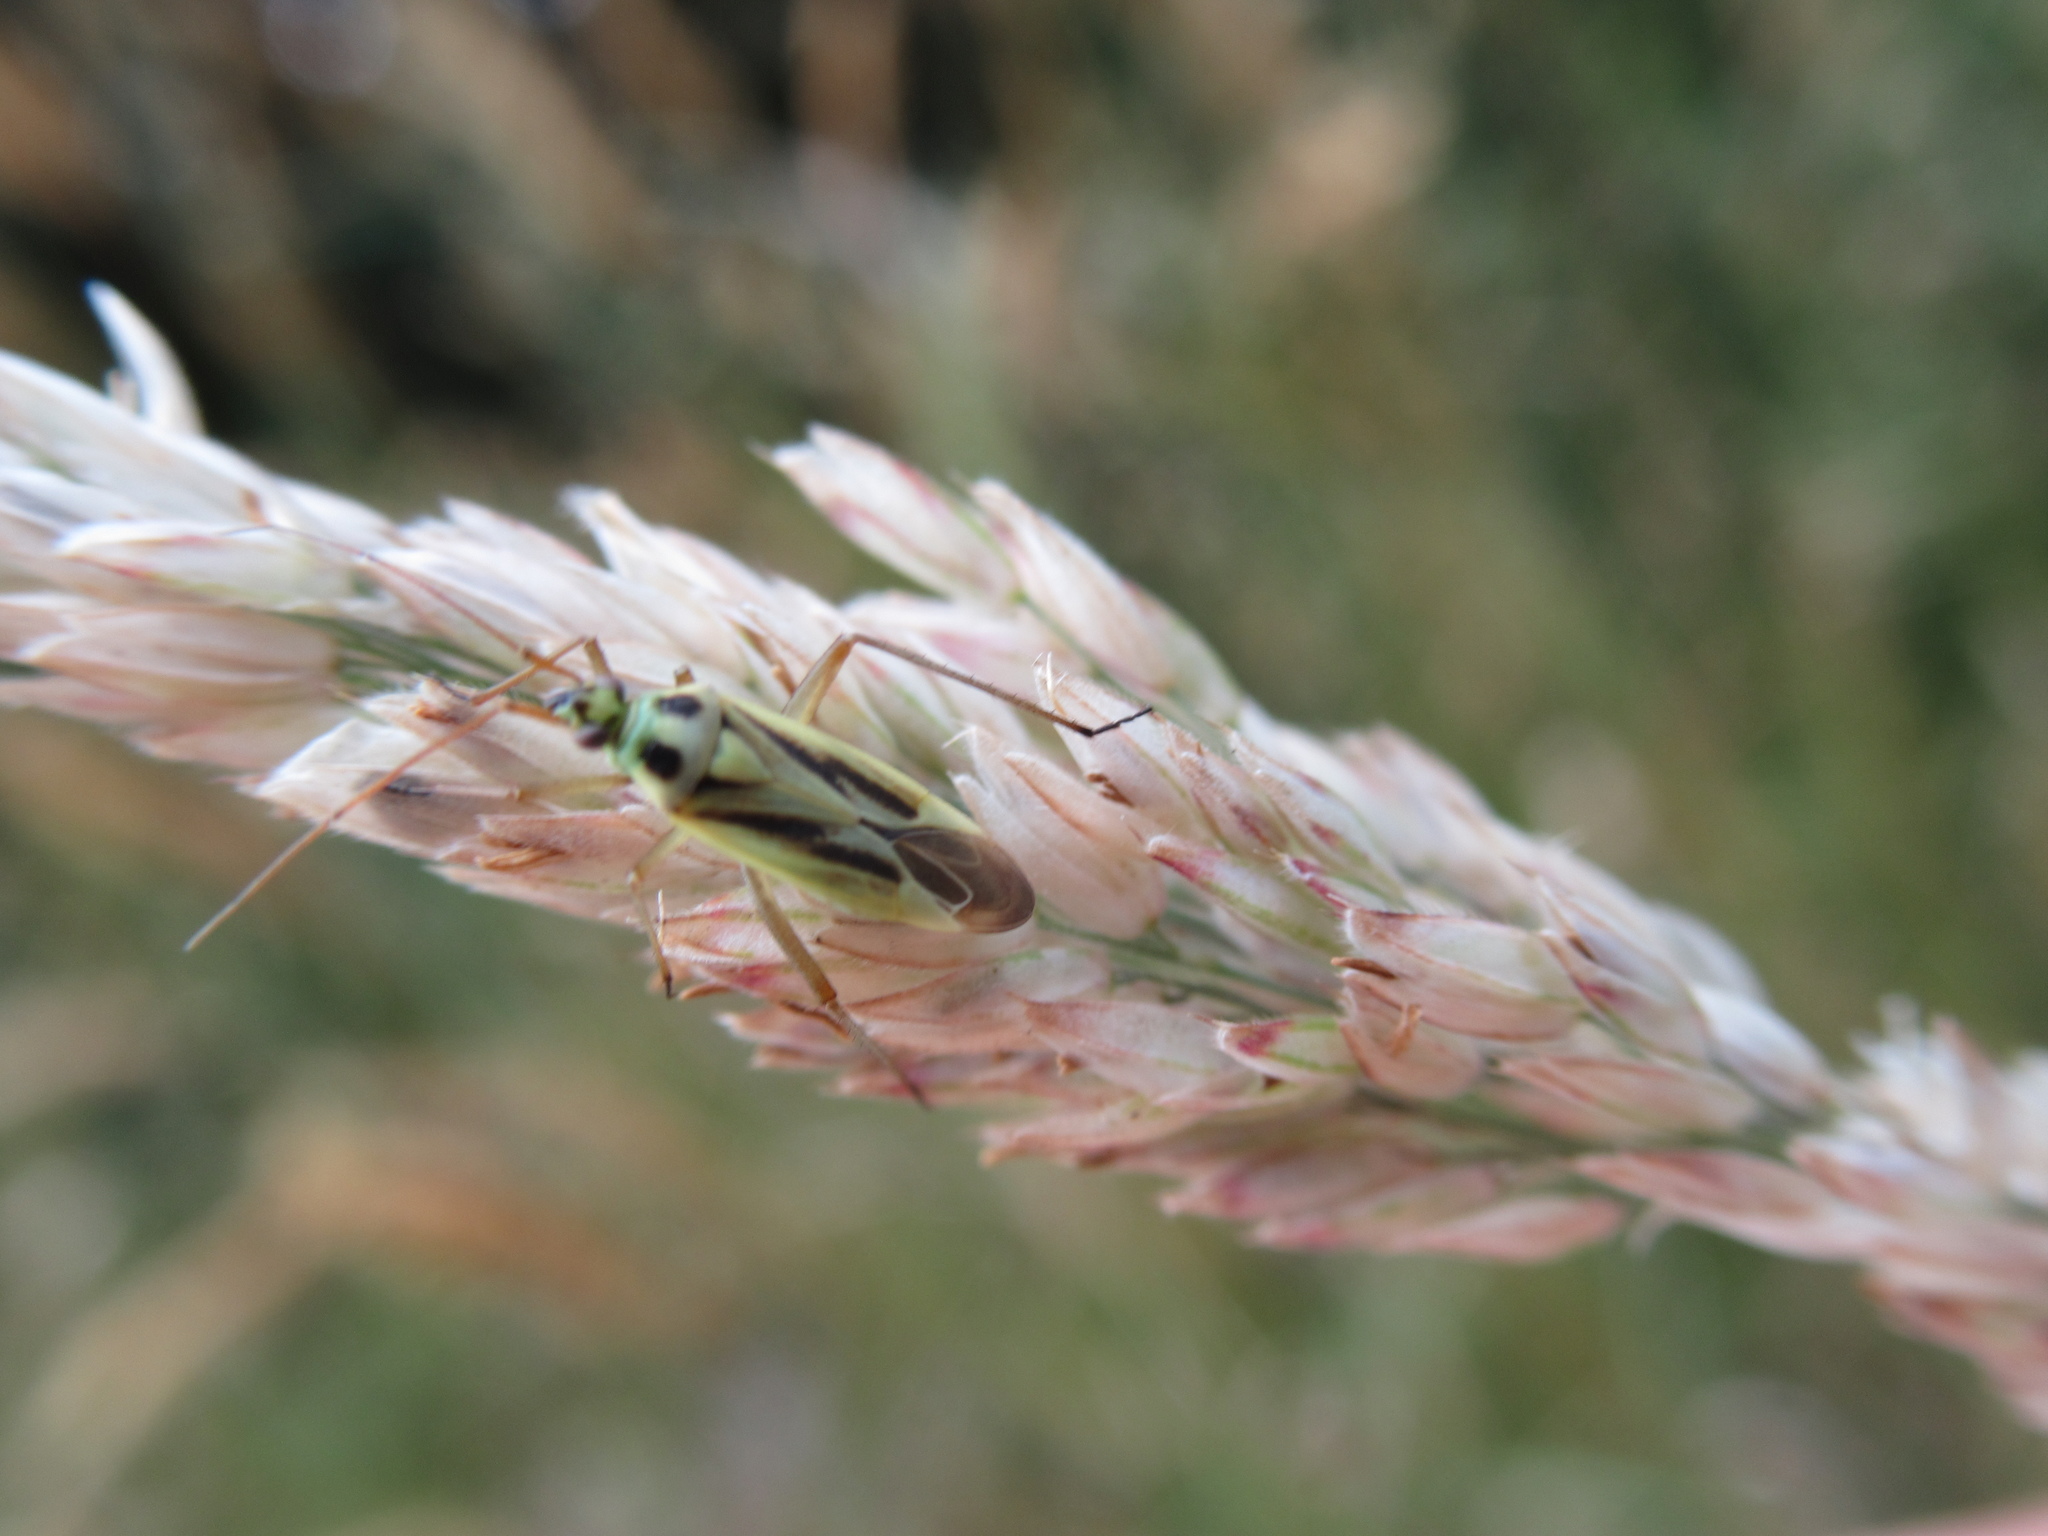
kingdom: Animalia
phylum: Arthropoda
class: Insecta
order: Hemiptera
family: Miridae
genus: Stenotus
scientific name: Stenotus binotatus
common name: Plant bug
